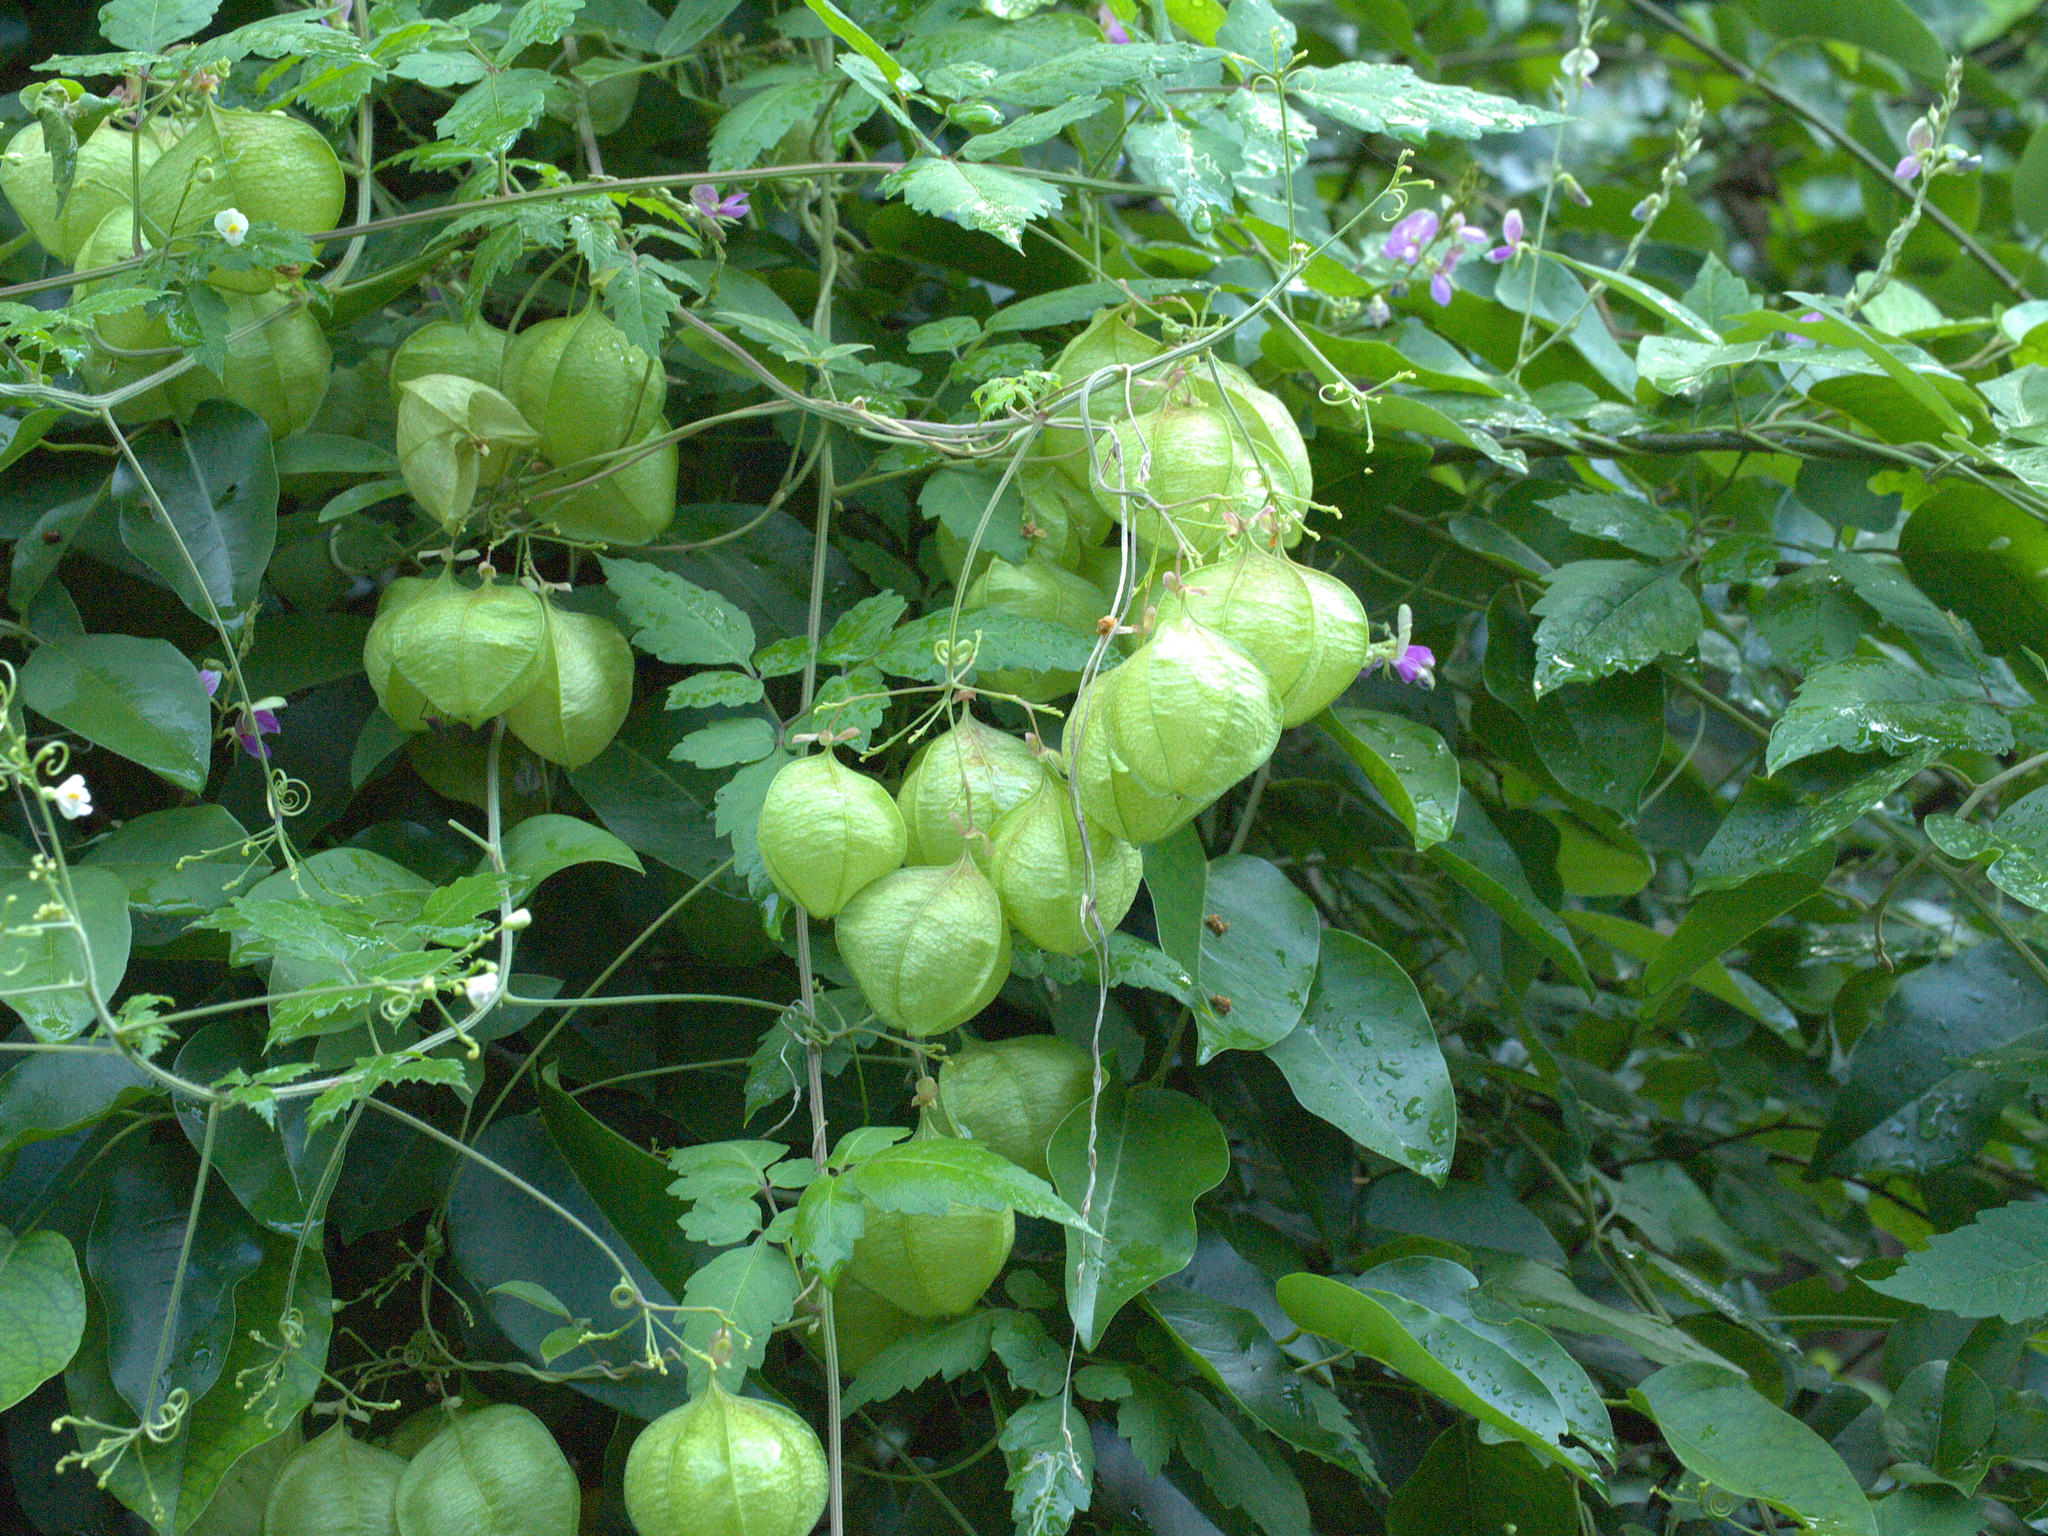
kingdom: Plantae
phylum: Tracheophyta
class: Magnoliopsida
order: Sapindales
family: Sapindaceae
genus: Cardiospermum
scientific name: Cardiospermum halicacabum
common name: Balloon vine
